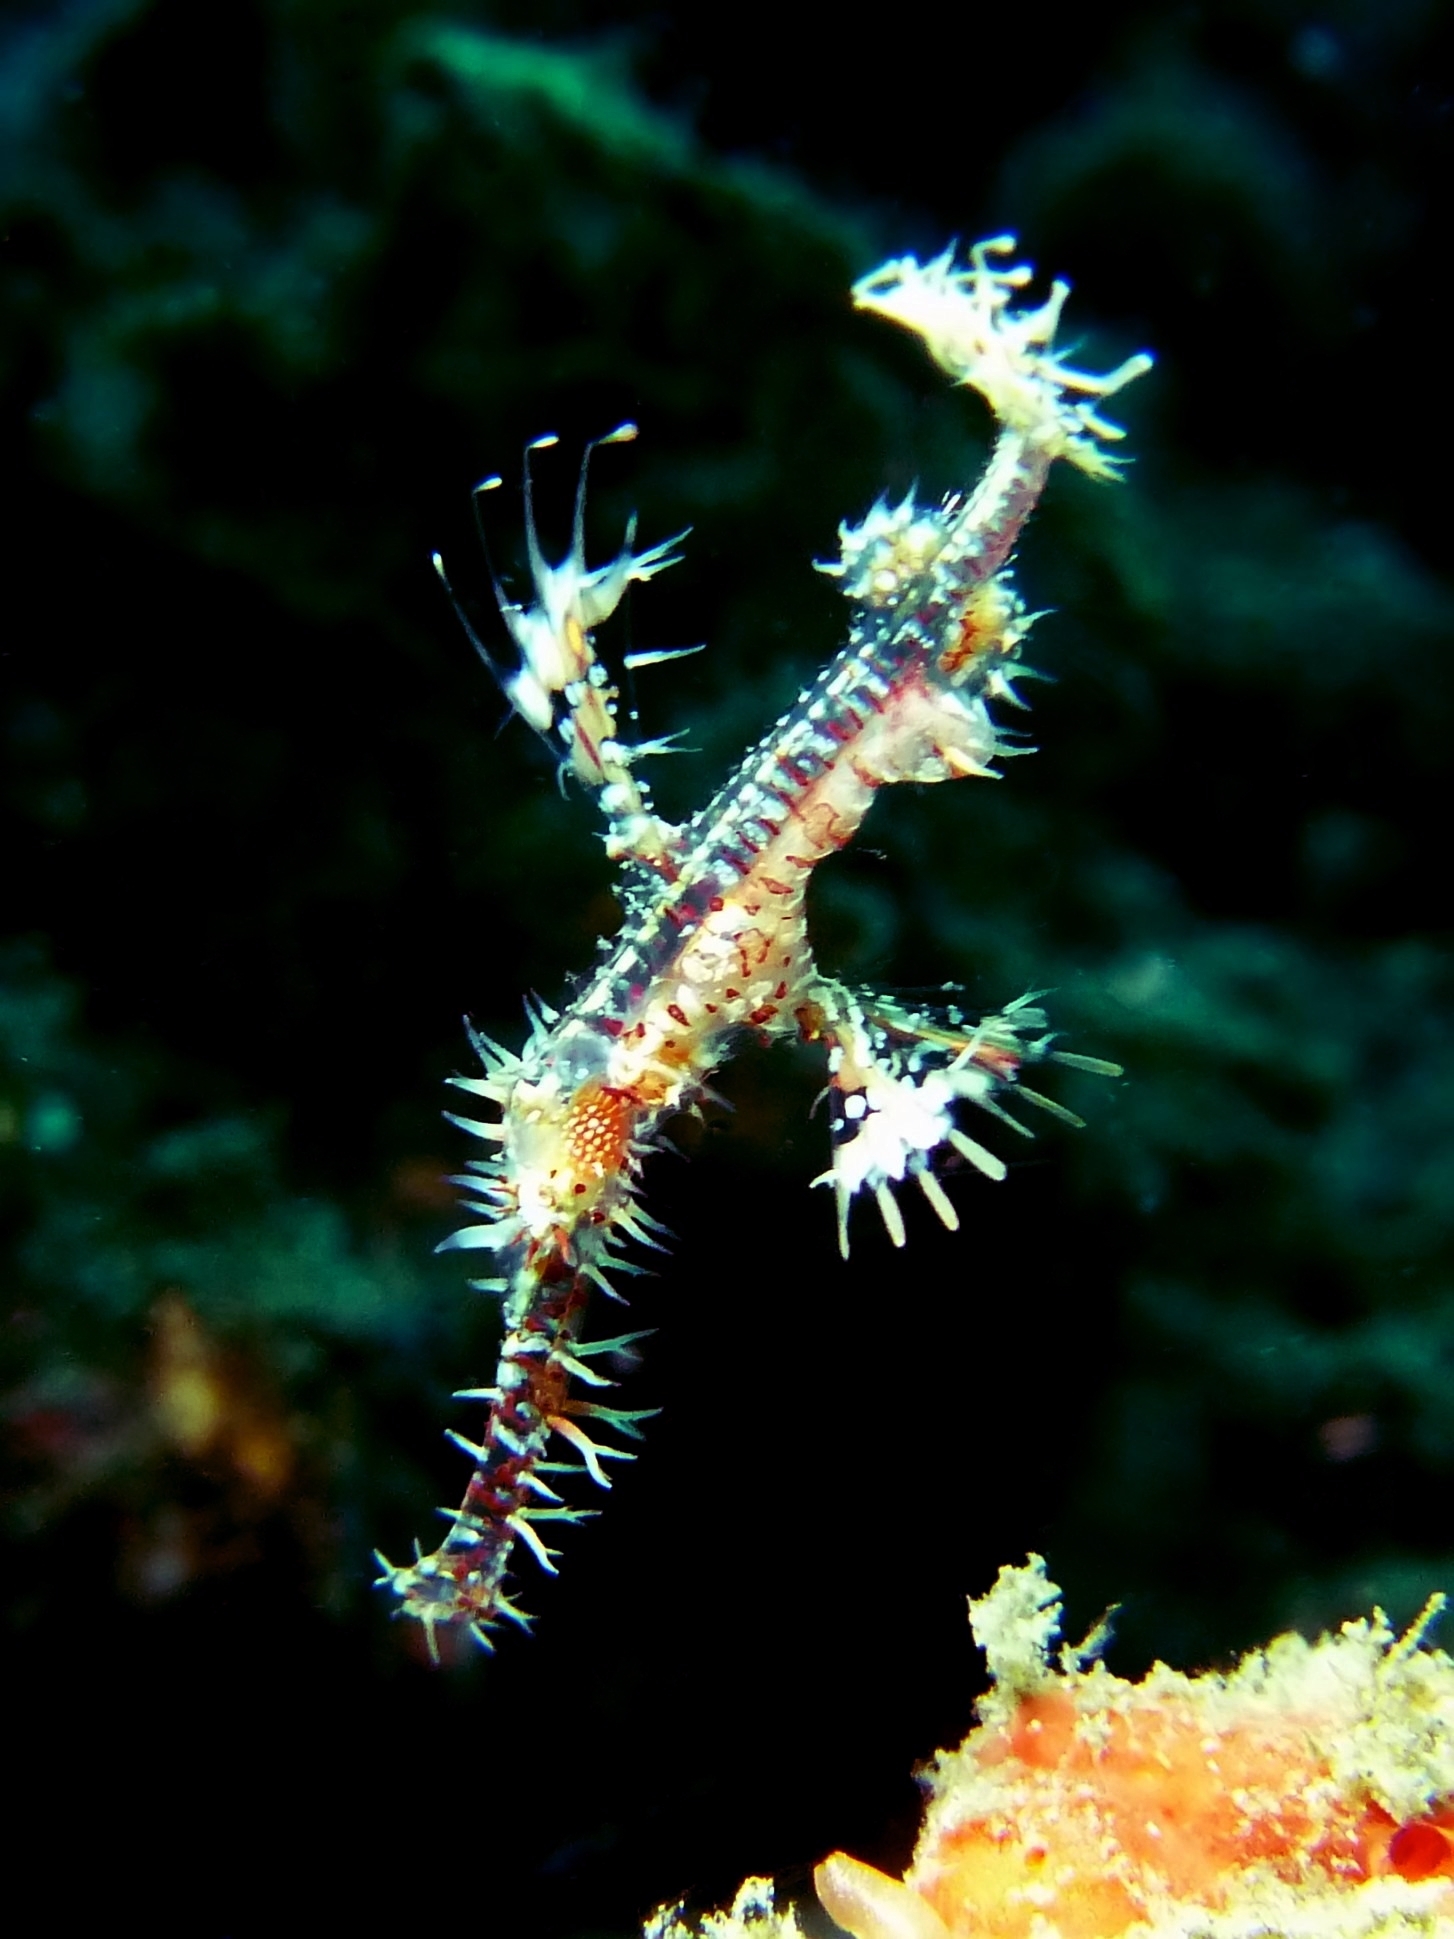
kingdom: Animalia
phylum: Chordata
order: Syngnathiformes
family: Solenostomidae
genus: Solenostomus
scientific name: Solenostomus paradoxus
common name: Ghost pipefish
